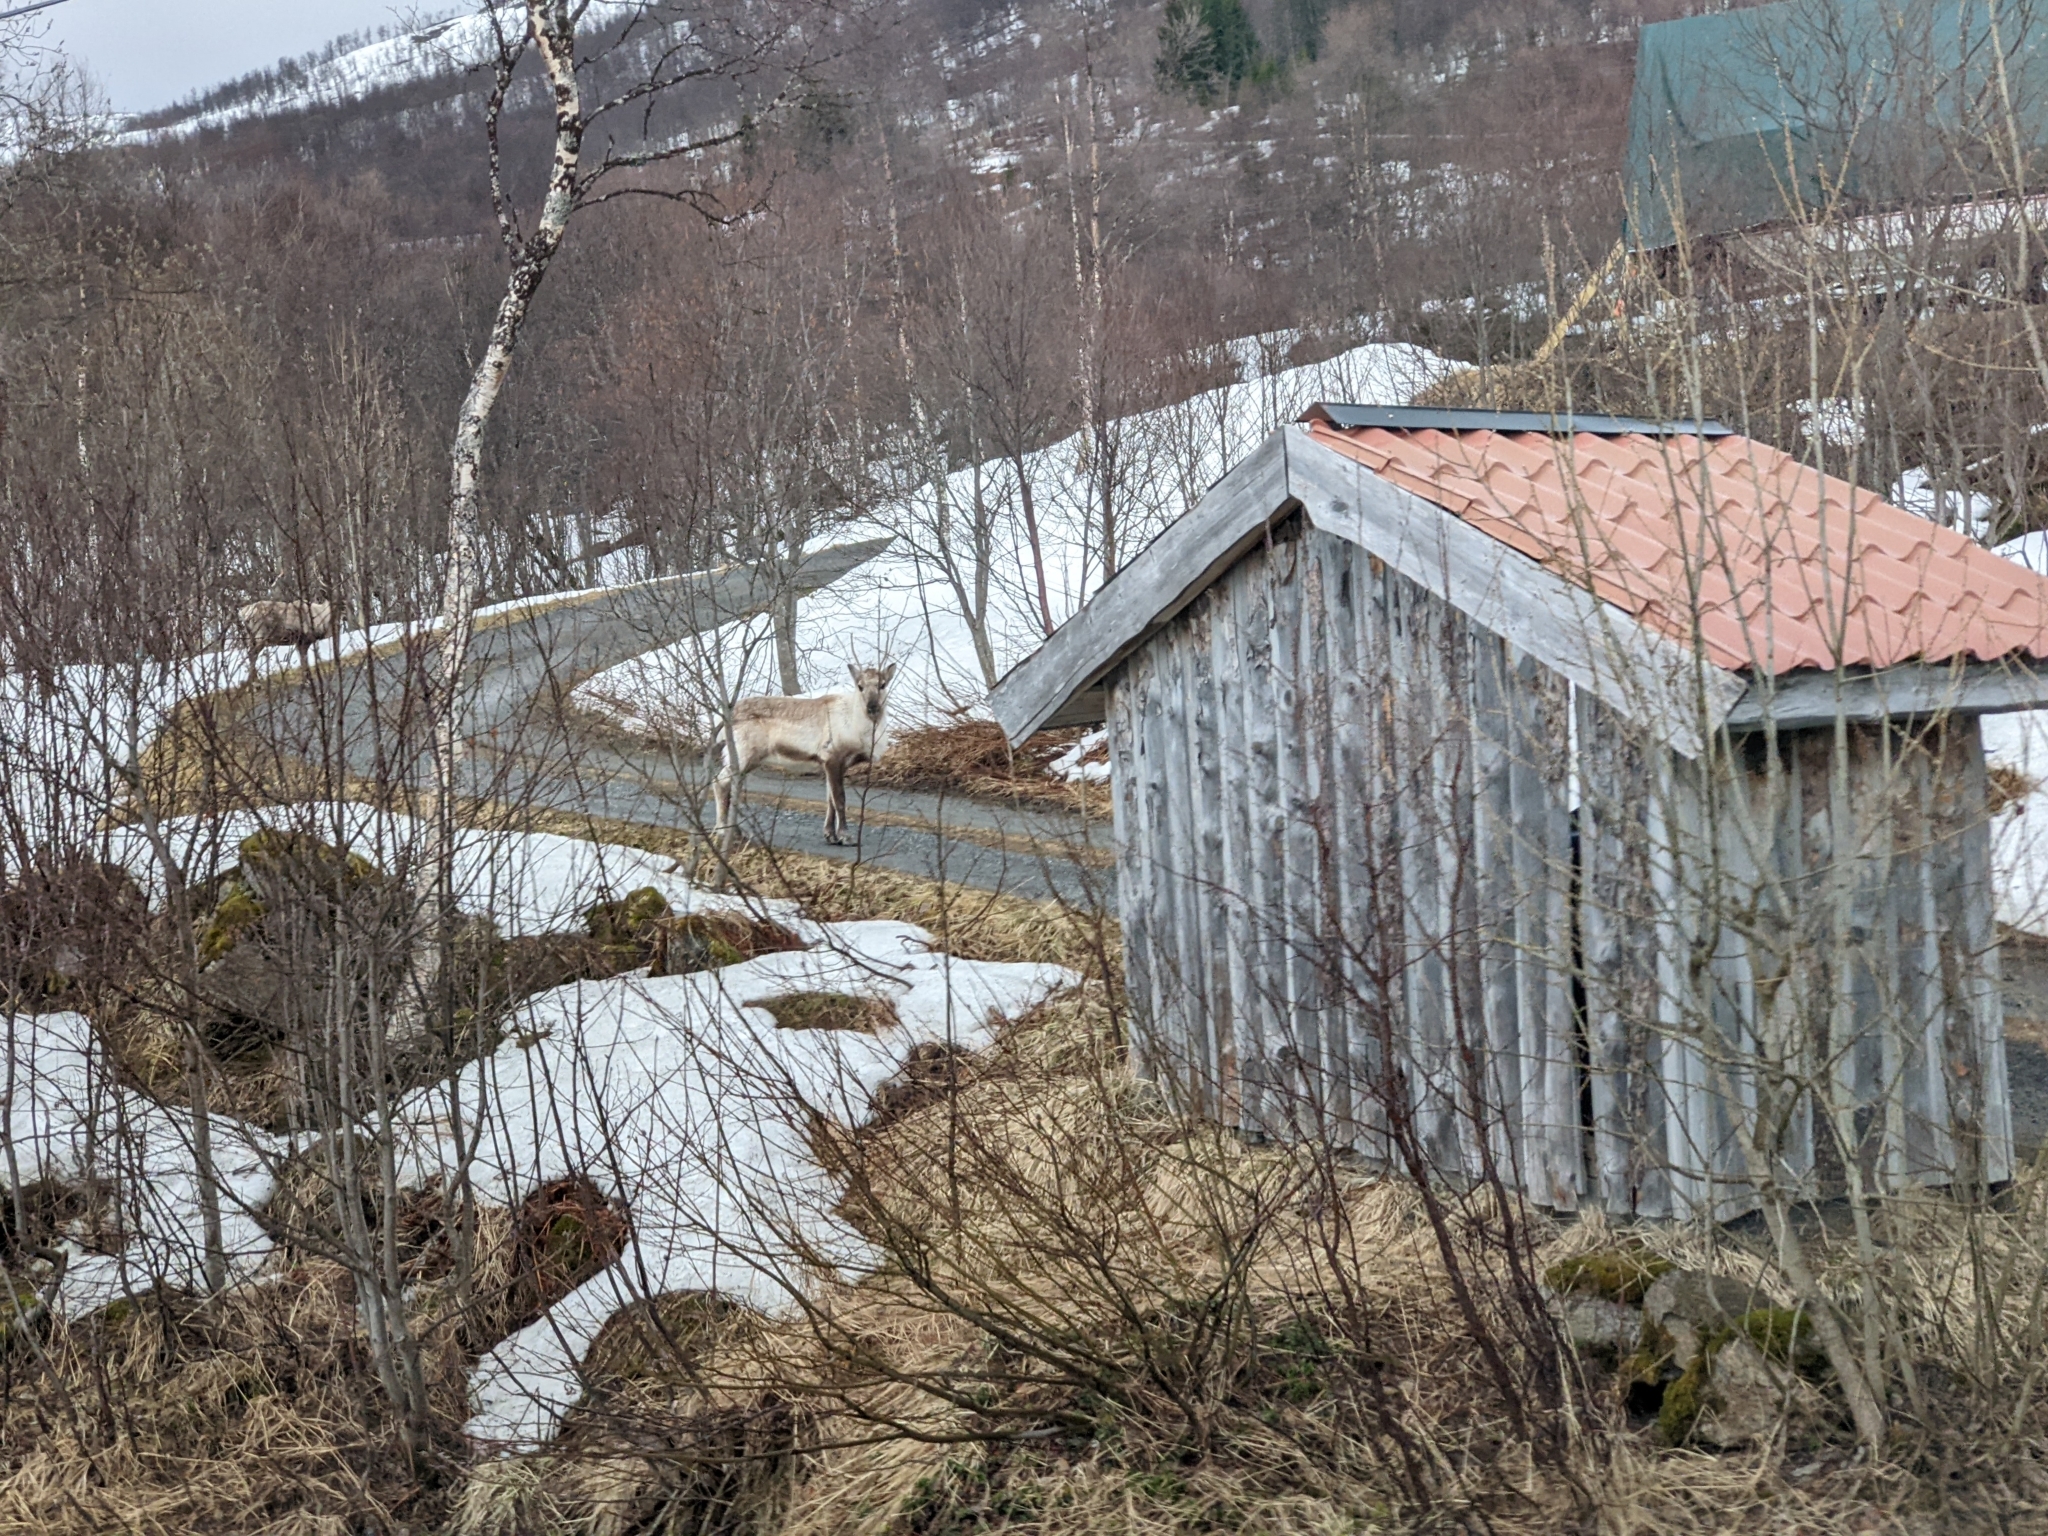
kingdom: Animalia
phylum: Chordata
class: Mammalia
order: Artiodactyla
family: Cervidae
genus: Rangifer
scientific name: Rangifer tarandus
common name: Reindeer
